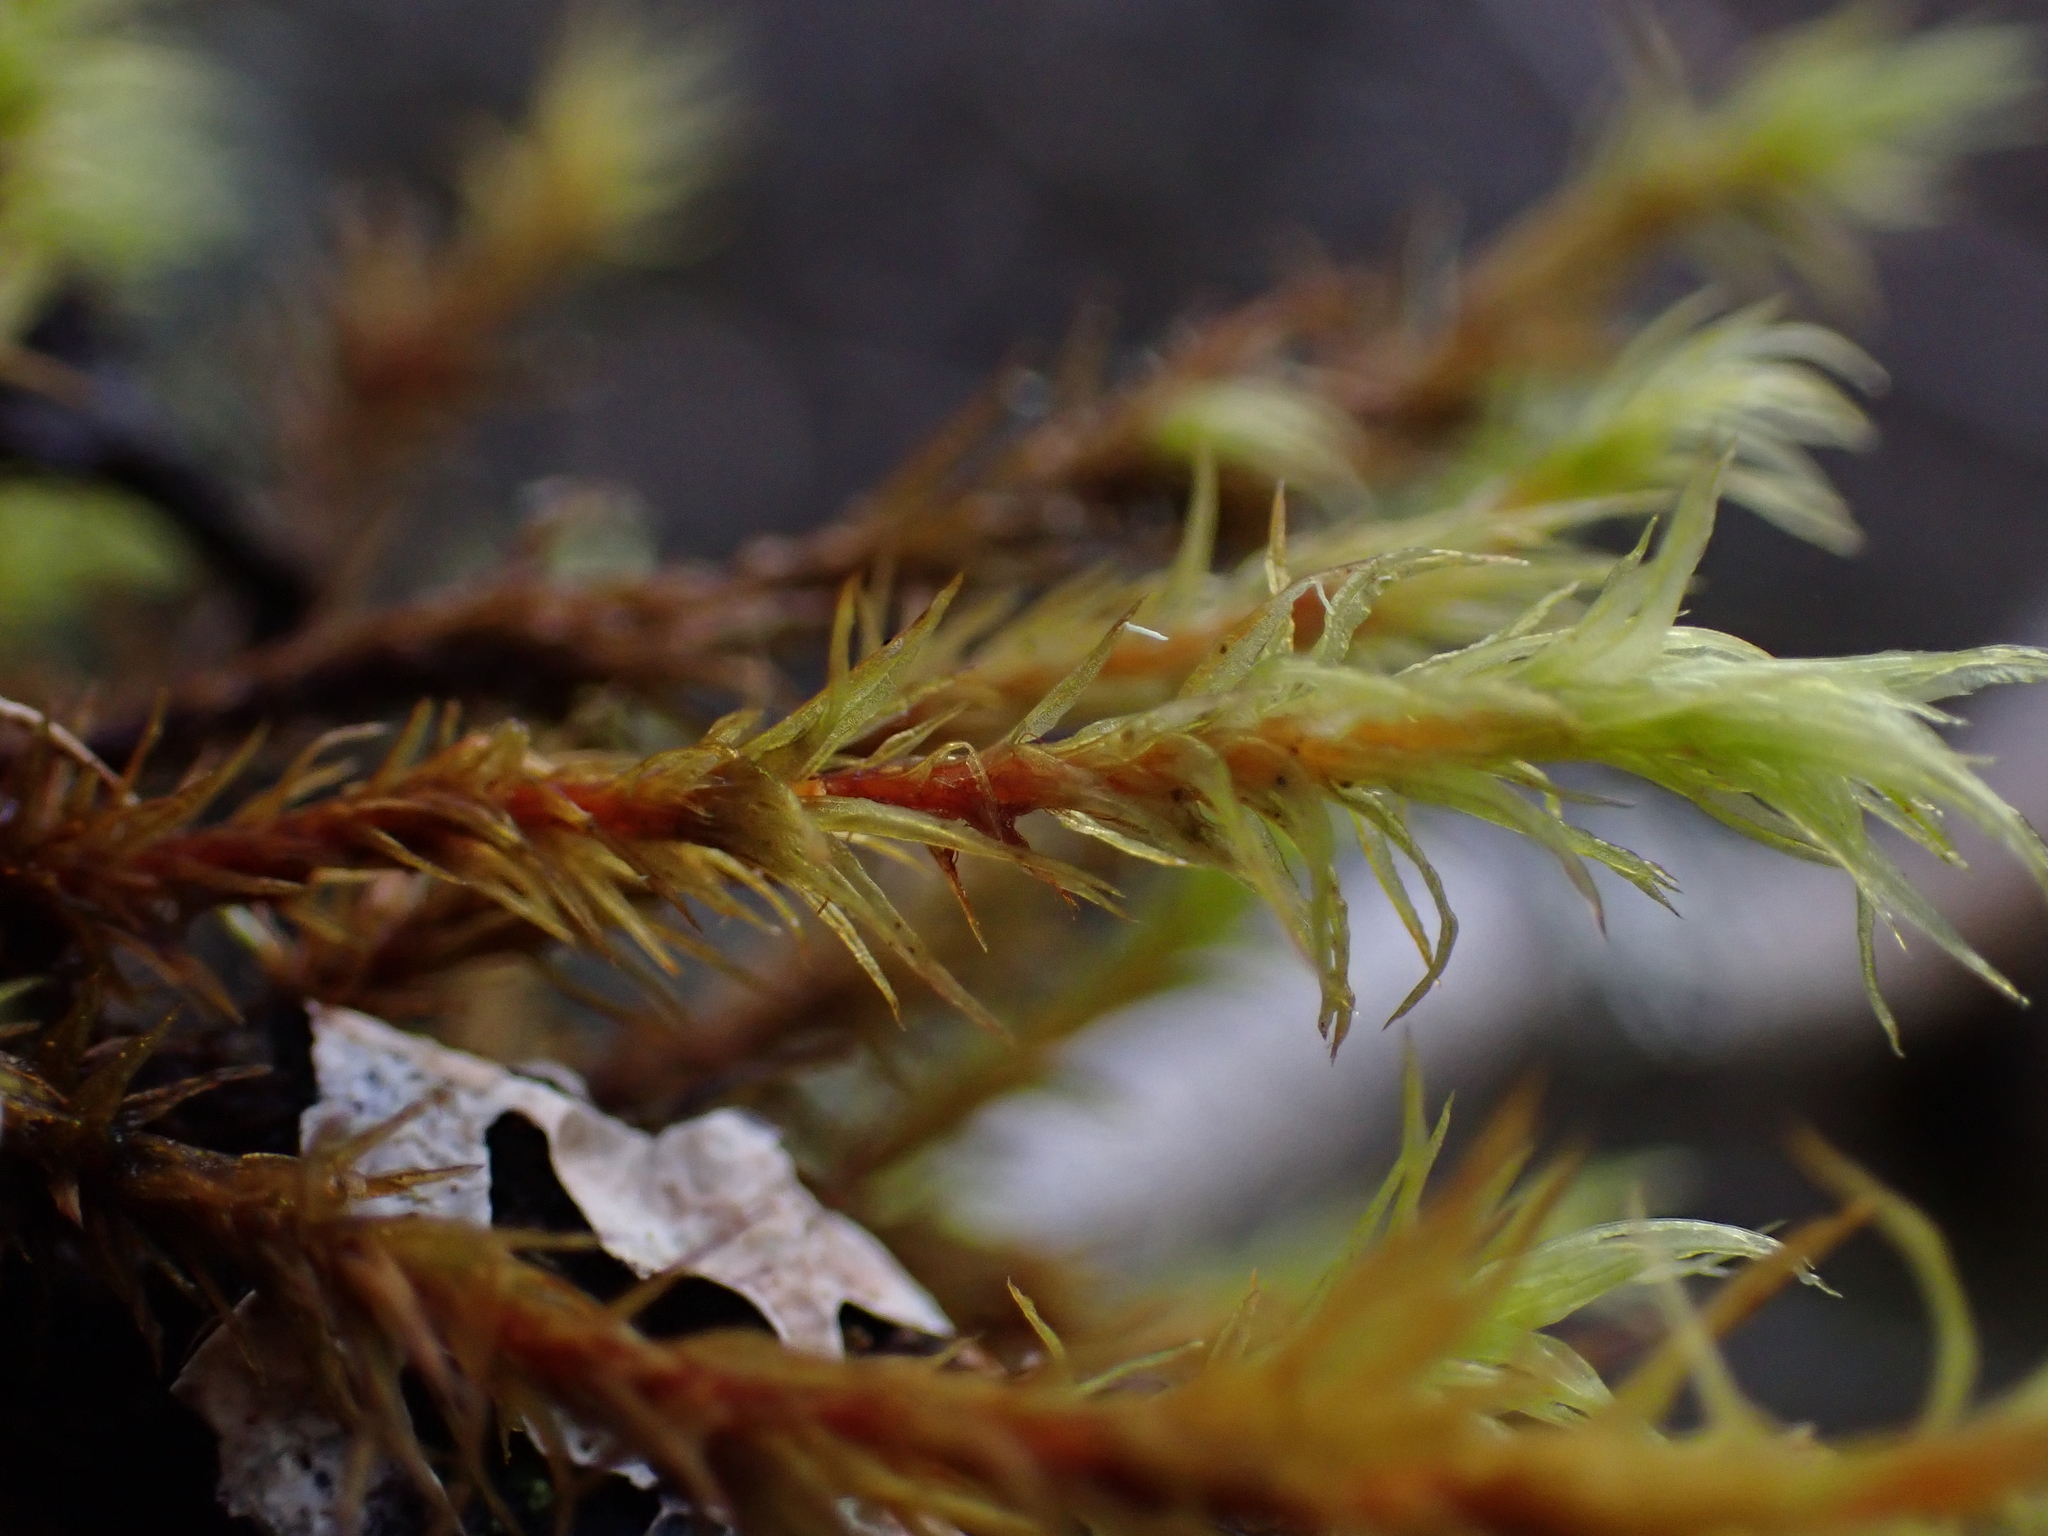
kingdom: Plantae
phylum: Bryophyta
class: Bryopsida
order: Orthotrichales
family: Orthotrichaceae
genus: Pulvigera
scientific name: Pulvigera lyellii
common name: Lyell's bristle-moss
